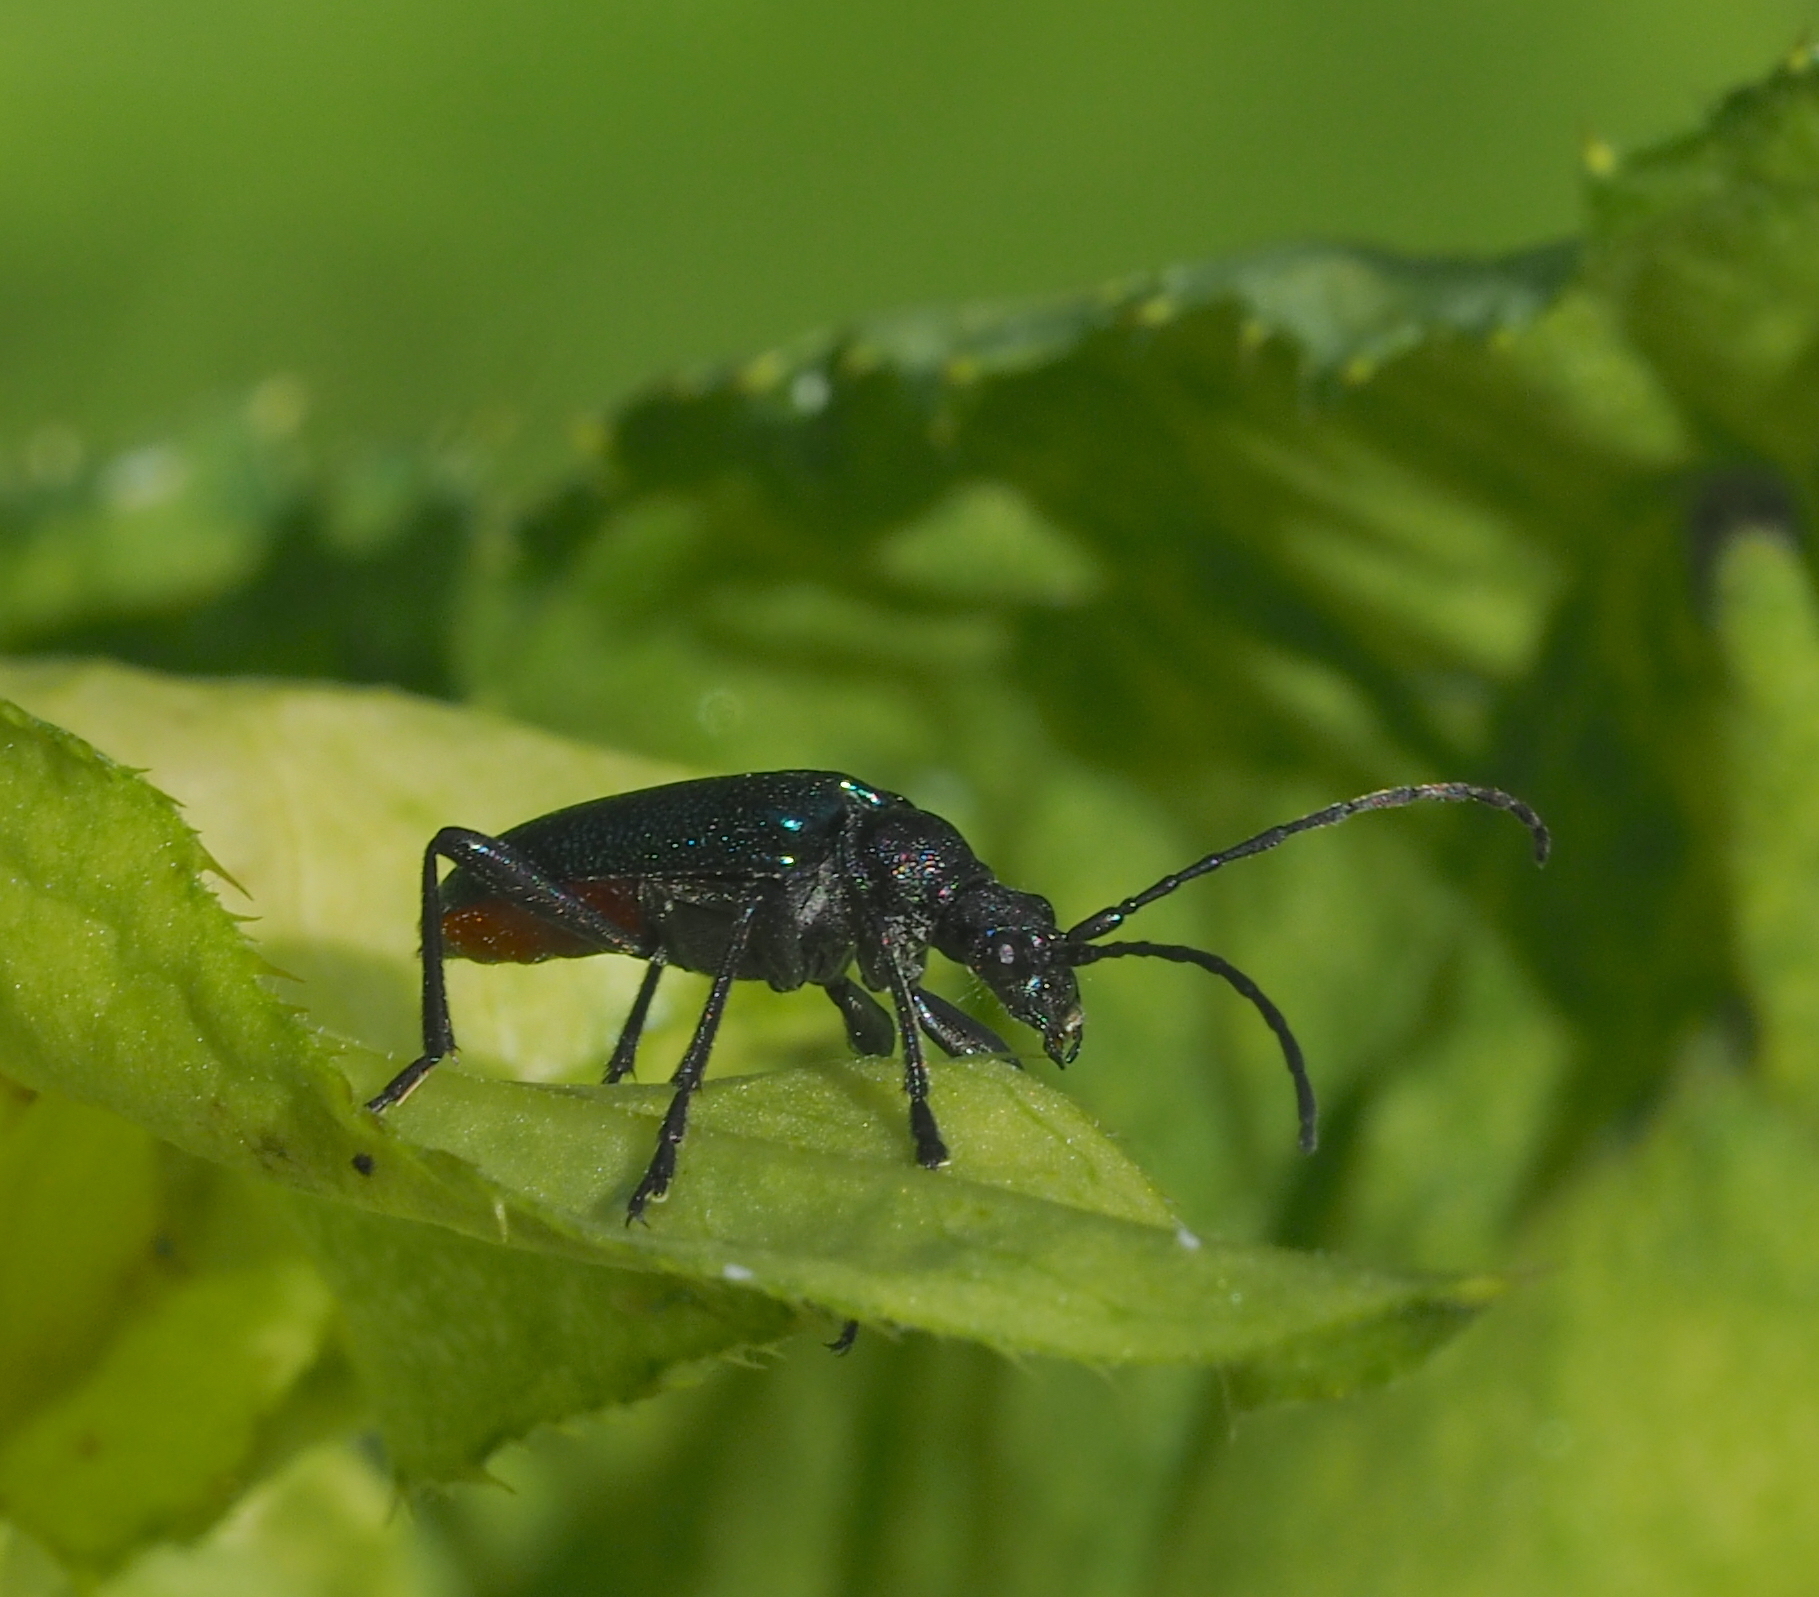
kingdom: Animalia
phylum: Arthropoda
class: Insecta
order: Coleoptera
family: Cerambycidae
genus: Gaurotes
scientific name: Gaurotes virginea
